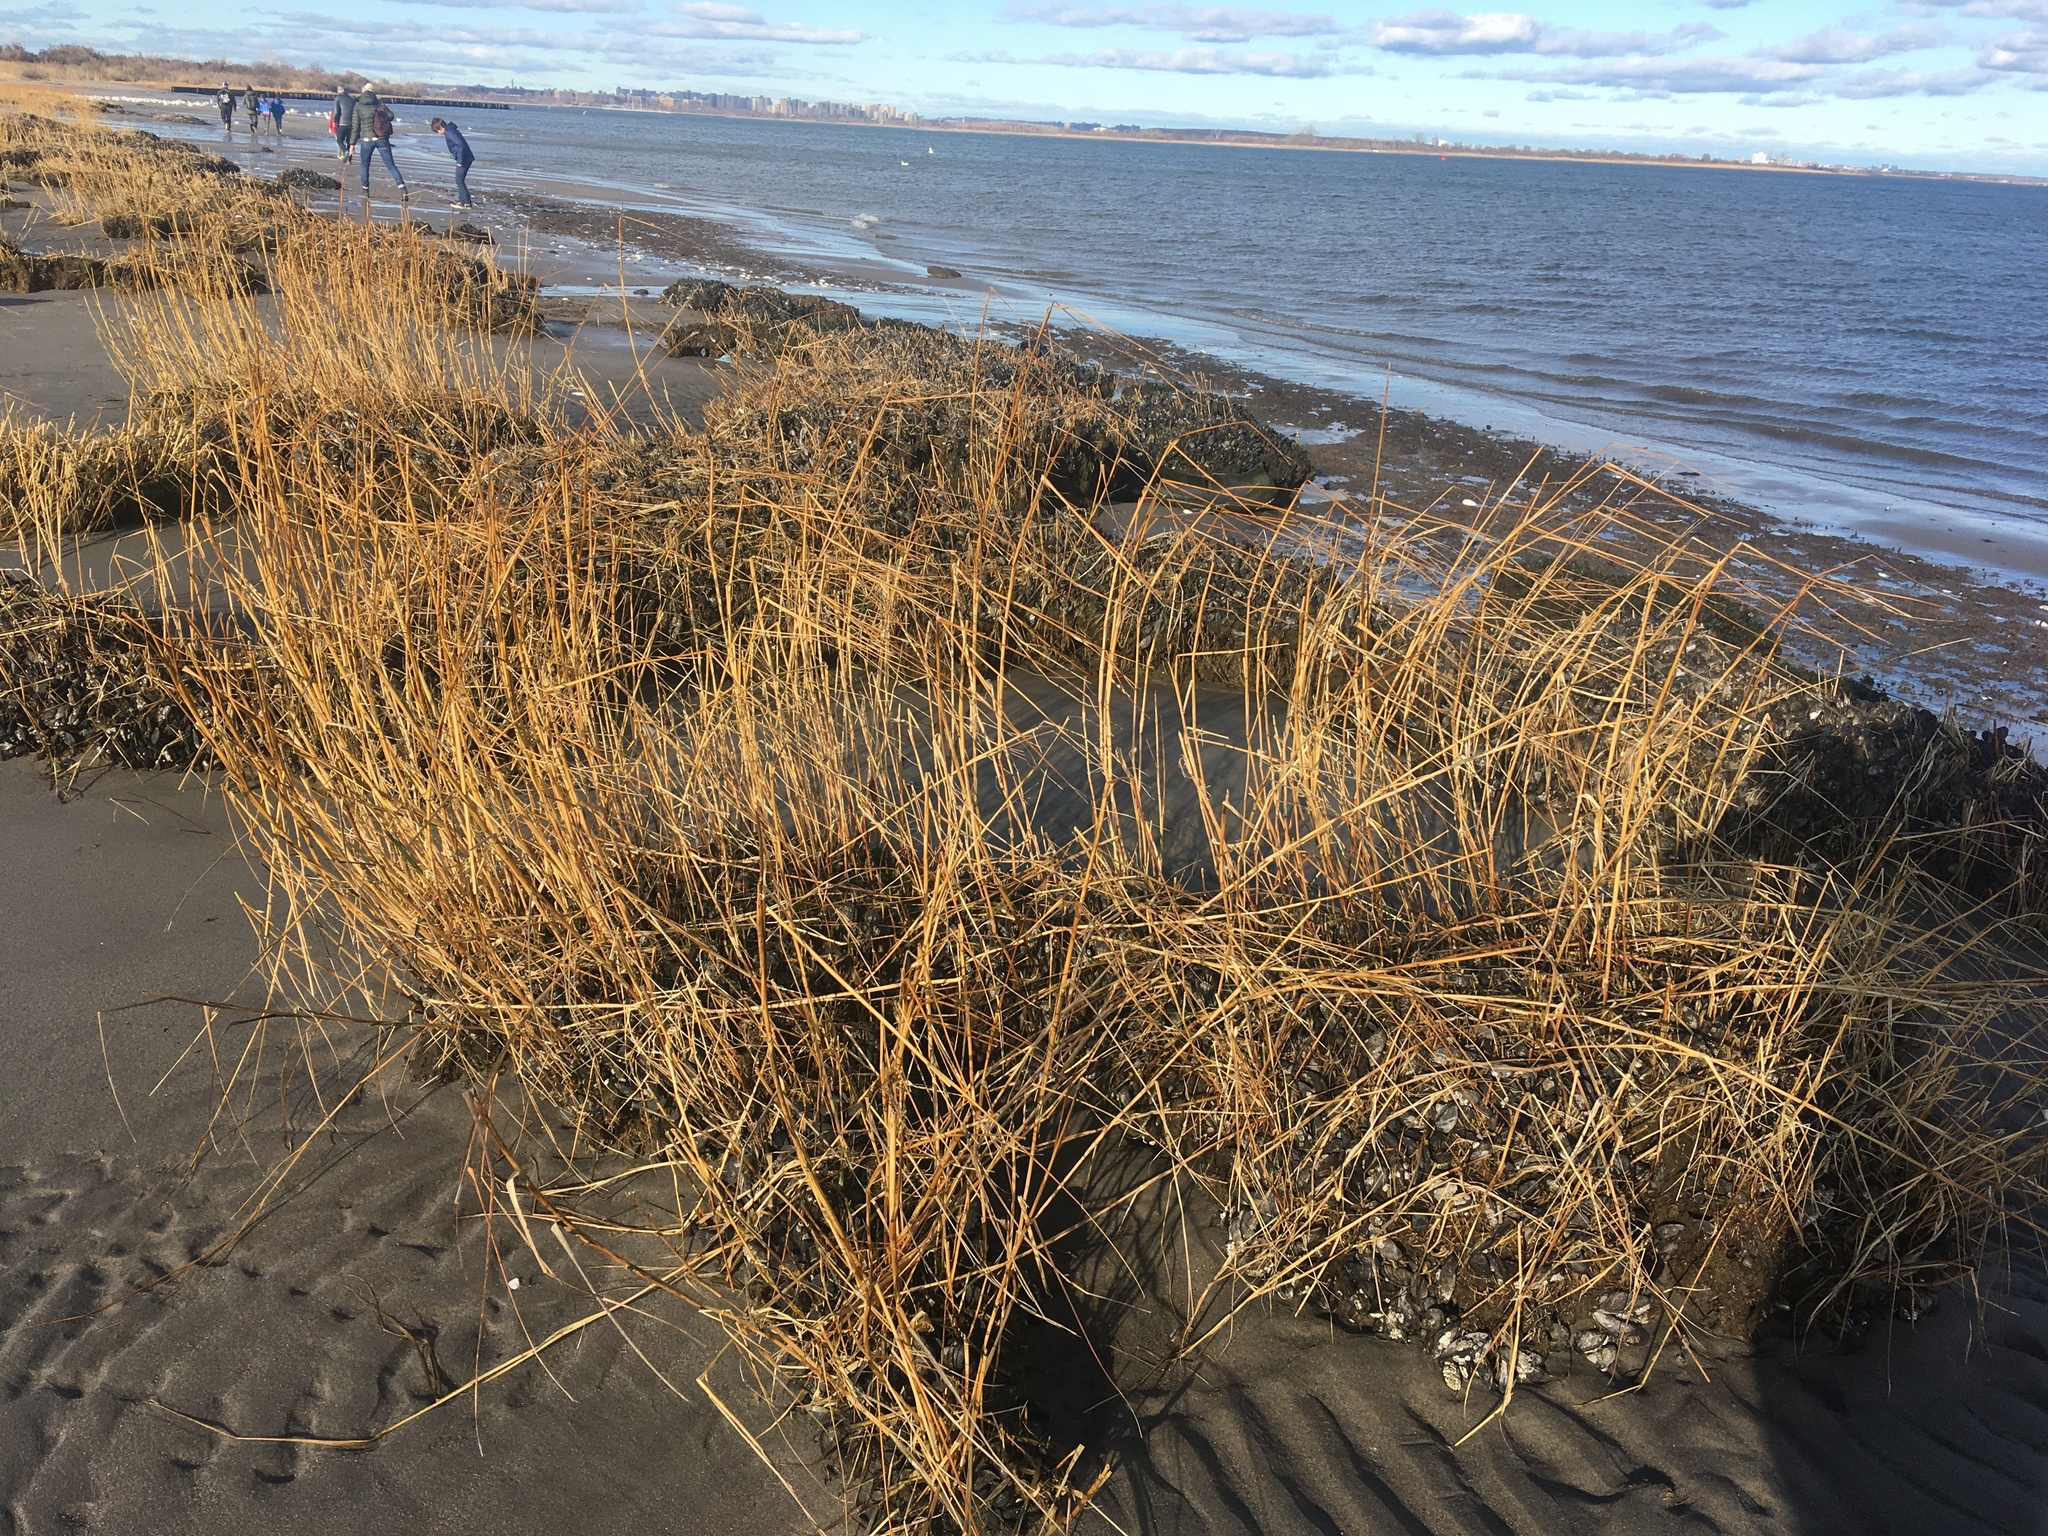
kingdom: Plantae
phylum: Tracheophyta
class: Liliopsida
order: Poales
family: Poaceae
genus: Sporobolus
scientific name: Sporobolus alterniflorus
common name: Atlantic cordgrass
